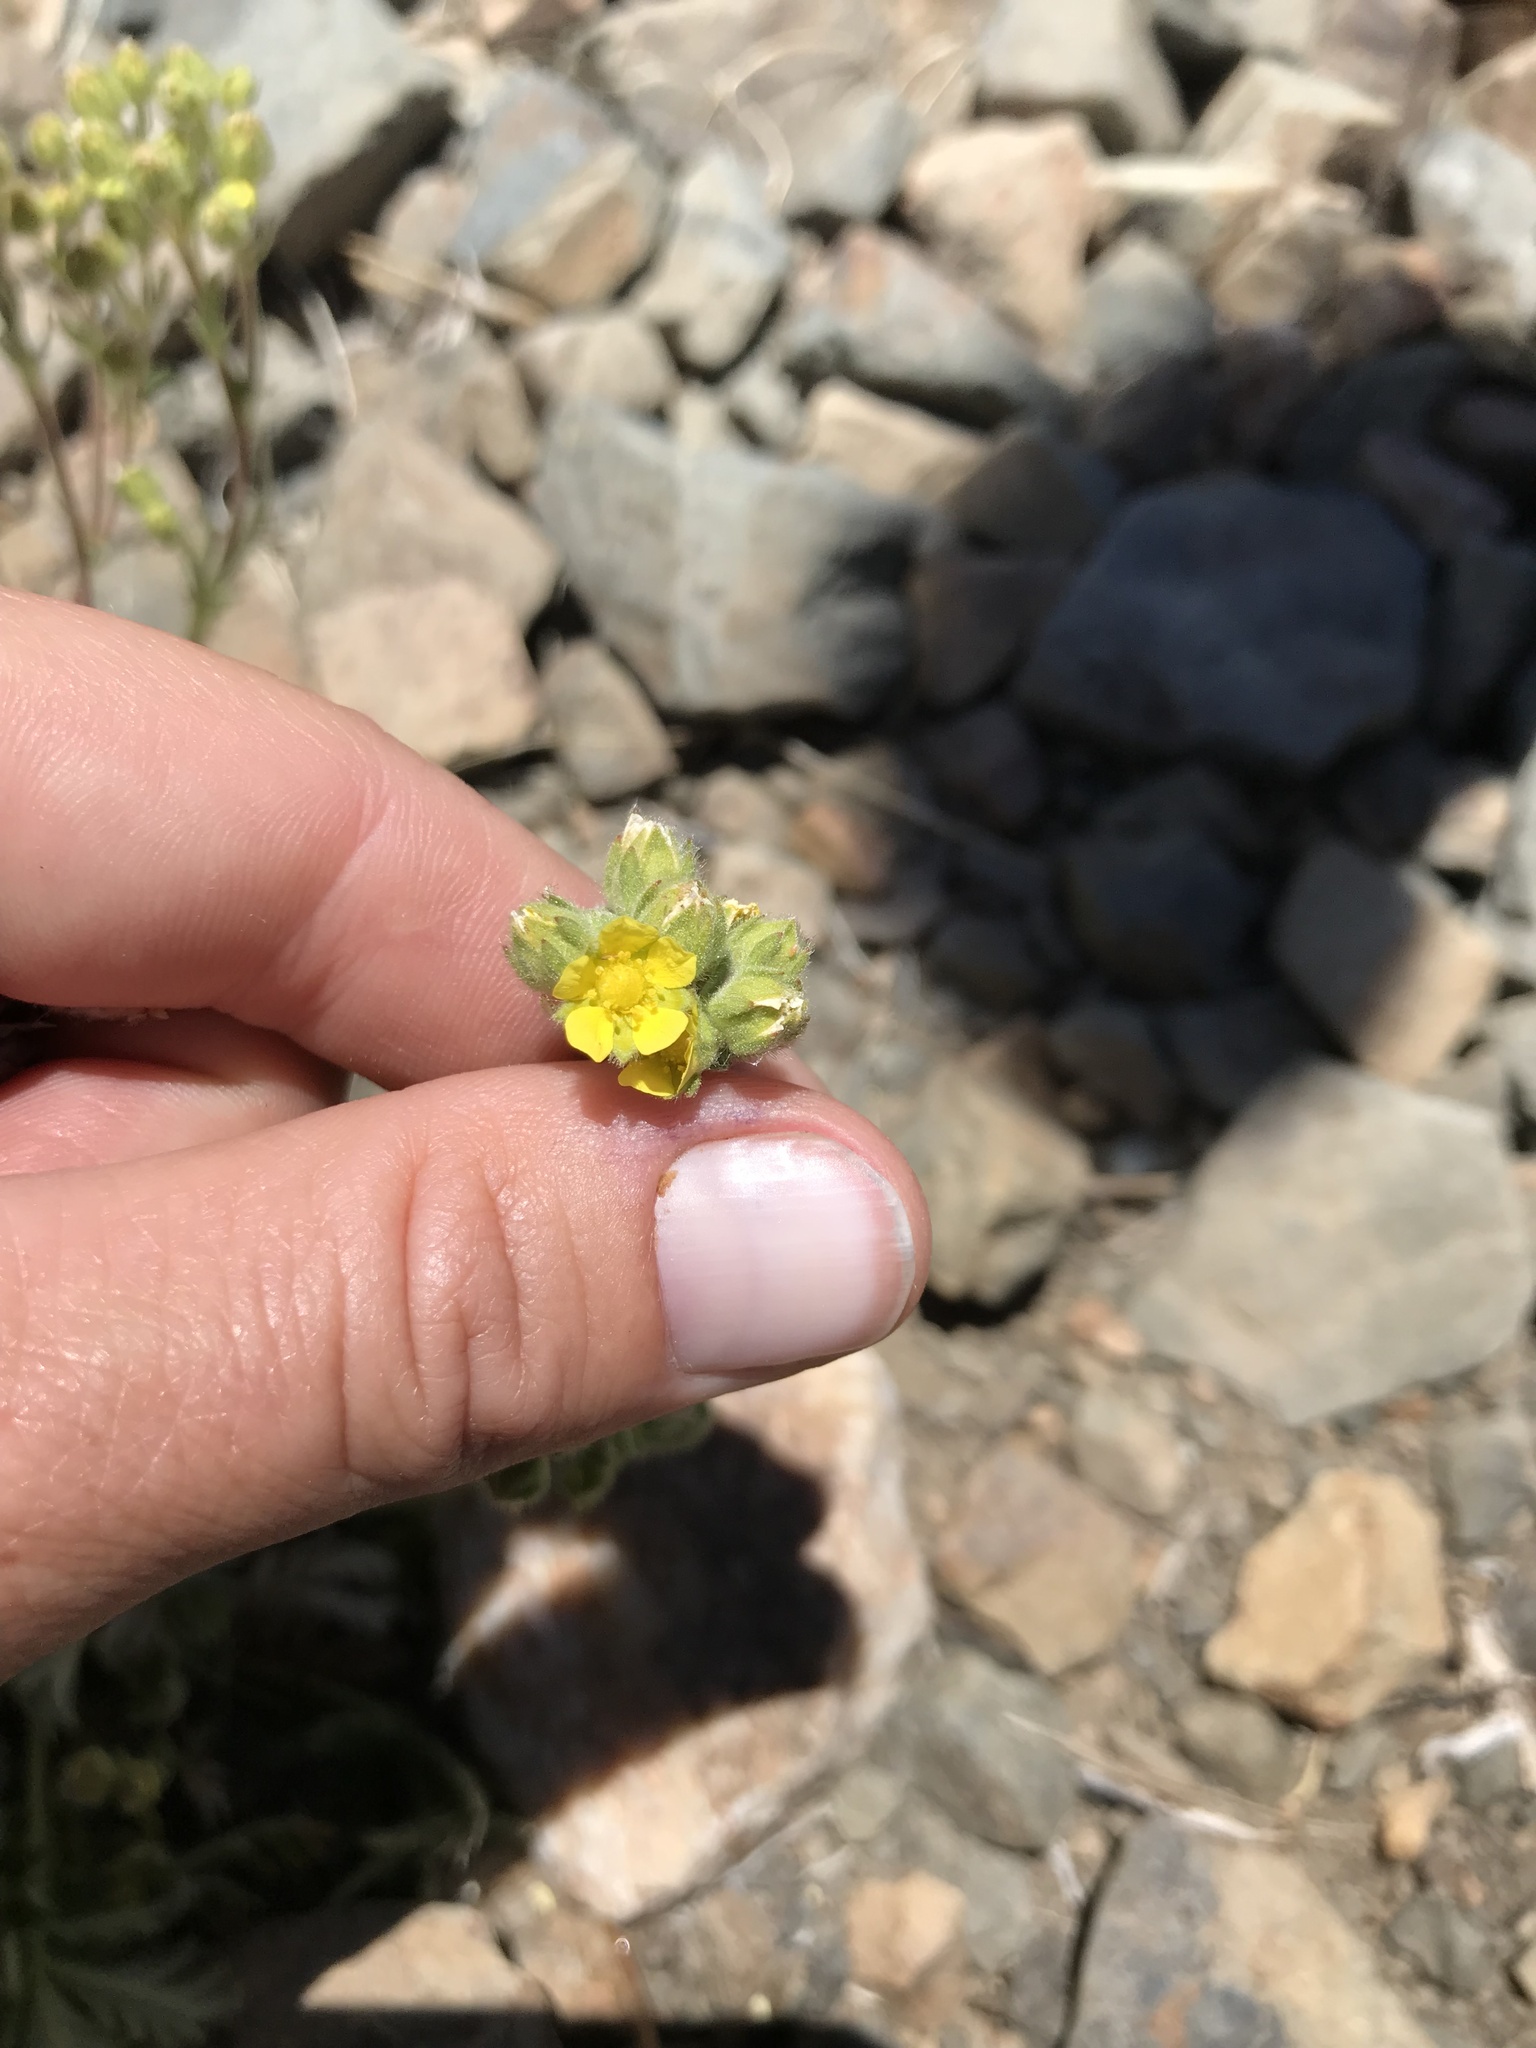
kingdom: Plantae
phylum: Tracheophyta
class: Magnoliopsida
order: Rosales
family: Rosaceae
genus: Potentilla
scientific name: Potentilla pseudosericea
